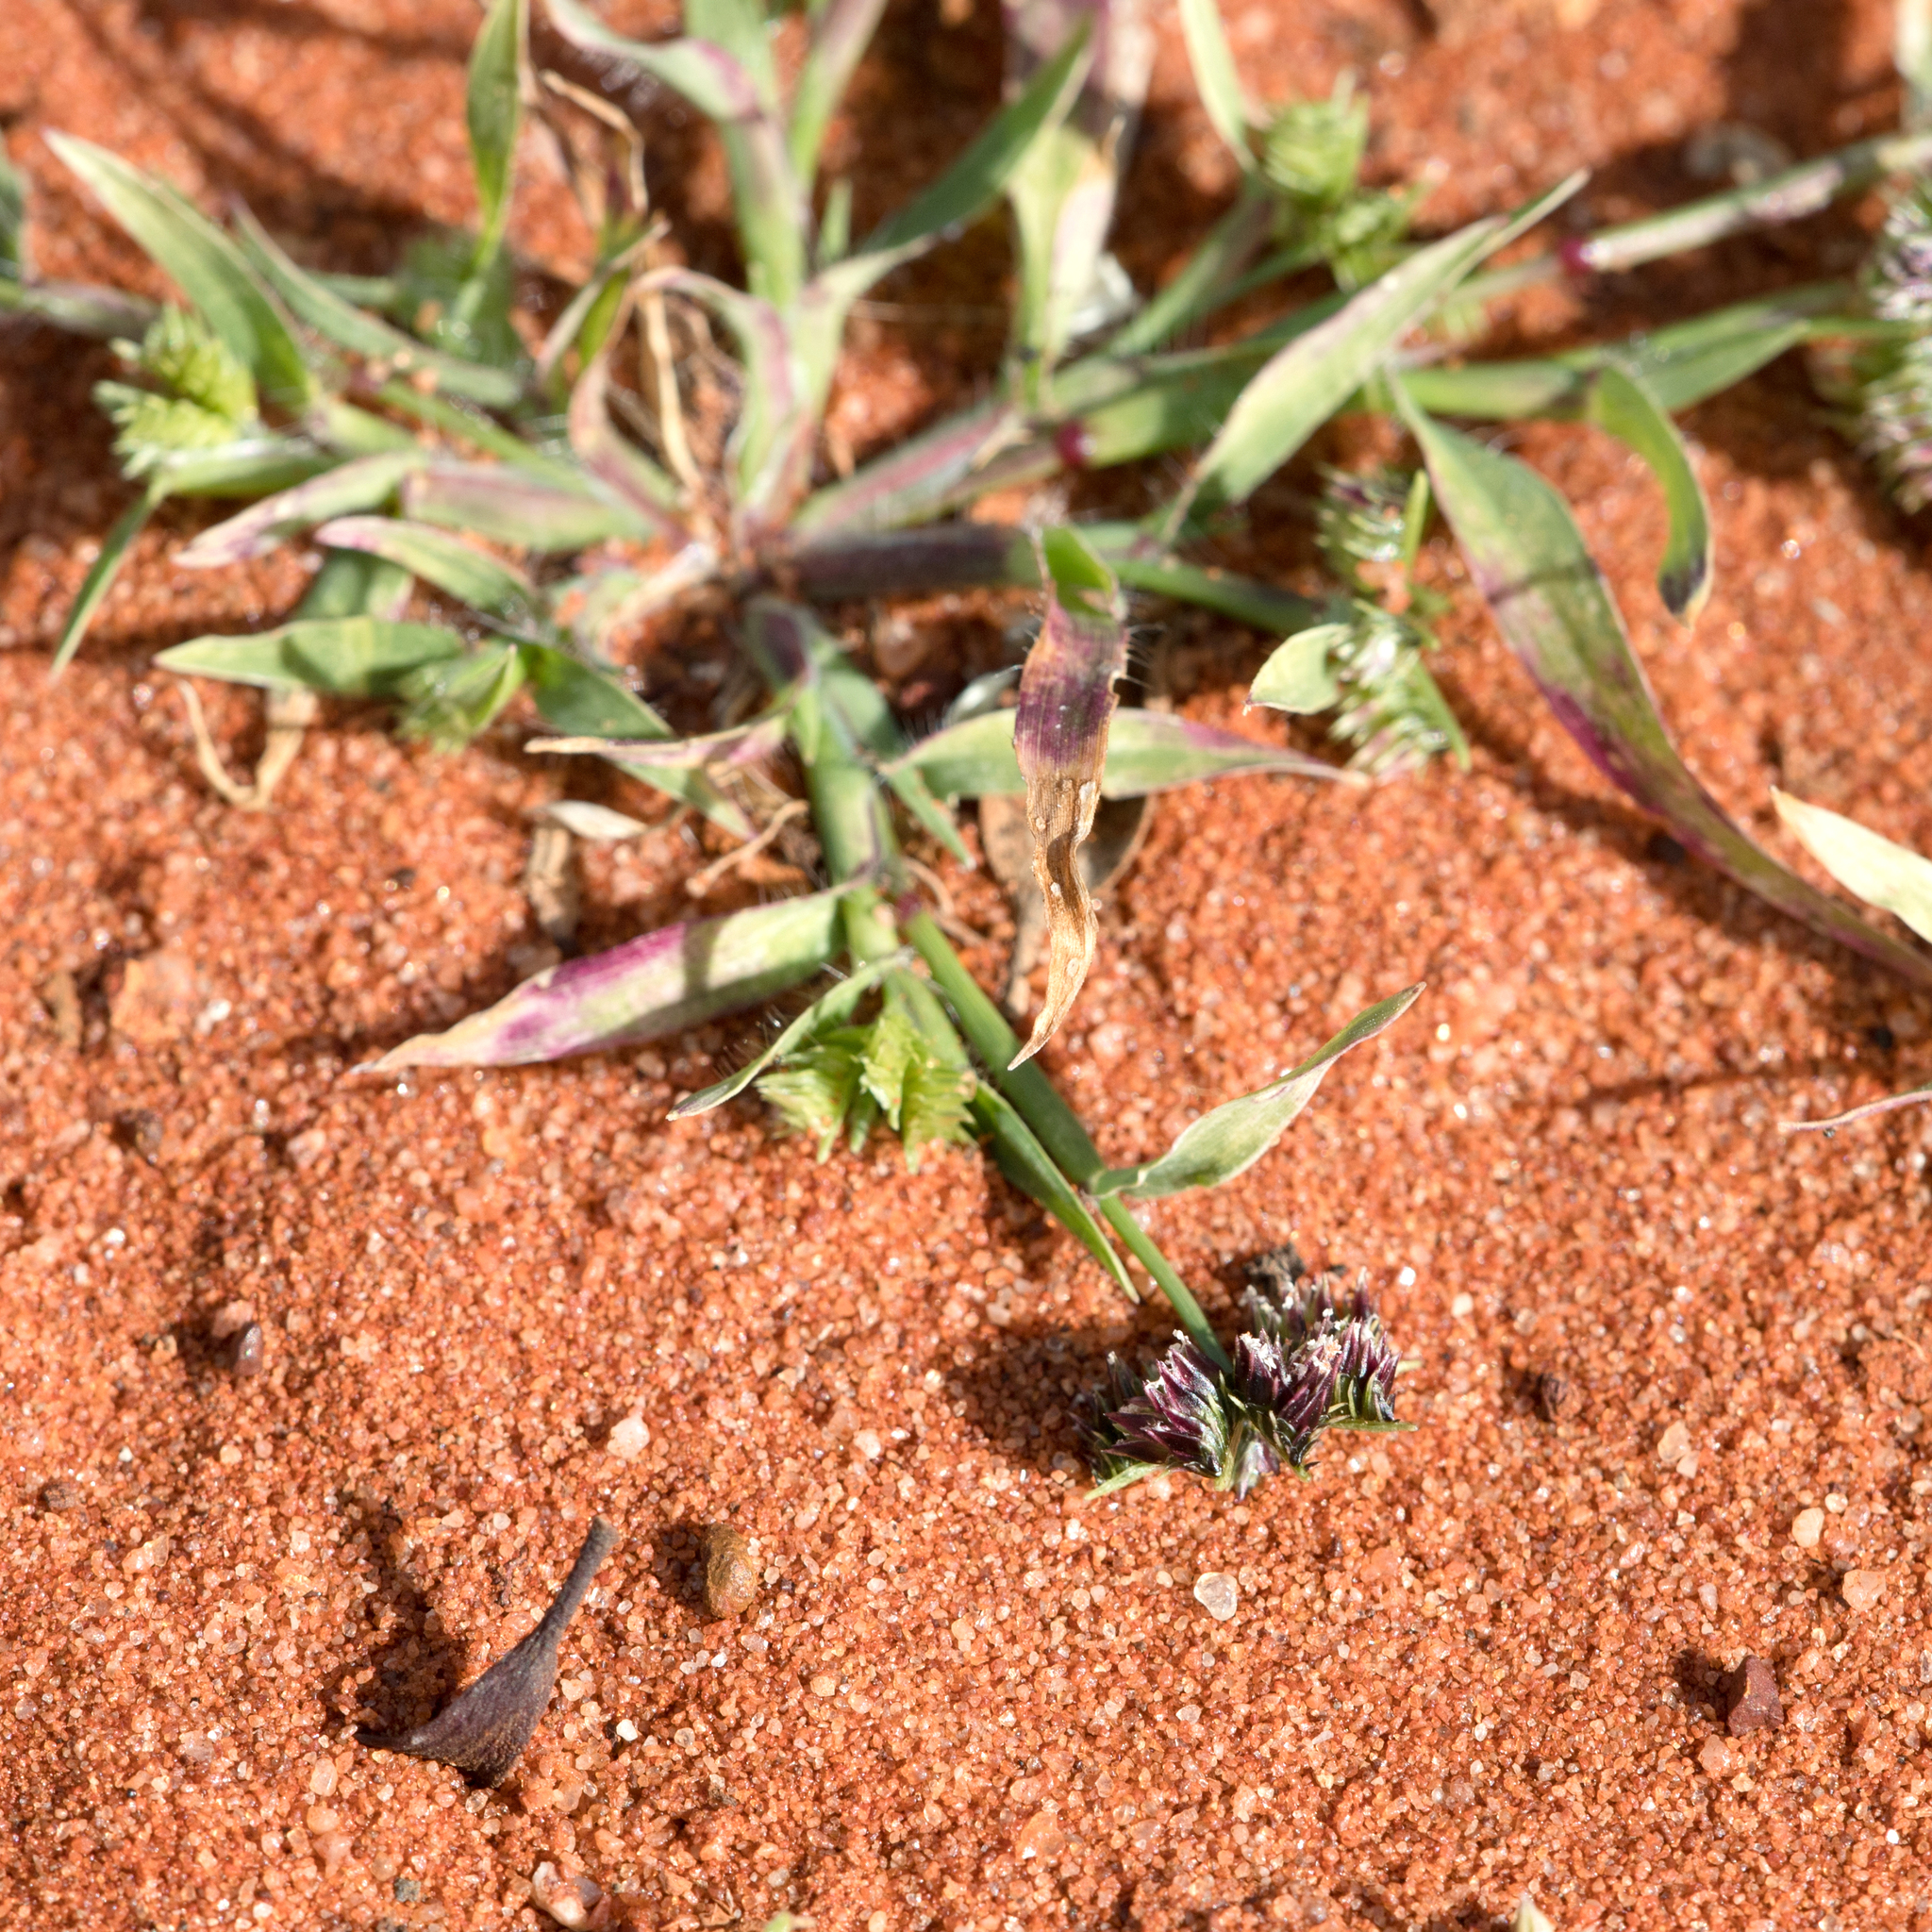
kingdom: Plantae
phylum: Tracheophyta
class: Liliopsida
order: Poales
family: Poaceae
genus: Dactyloctenium
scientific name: Dactyloctenium radulans
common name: Button-grass
